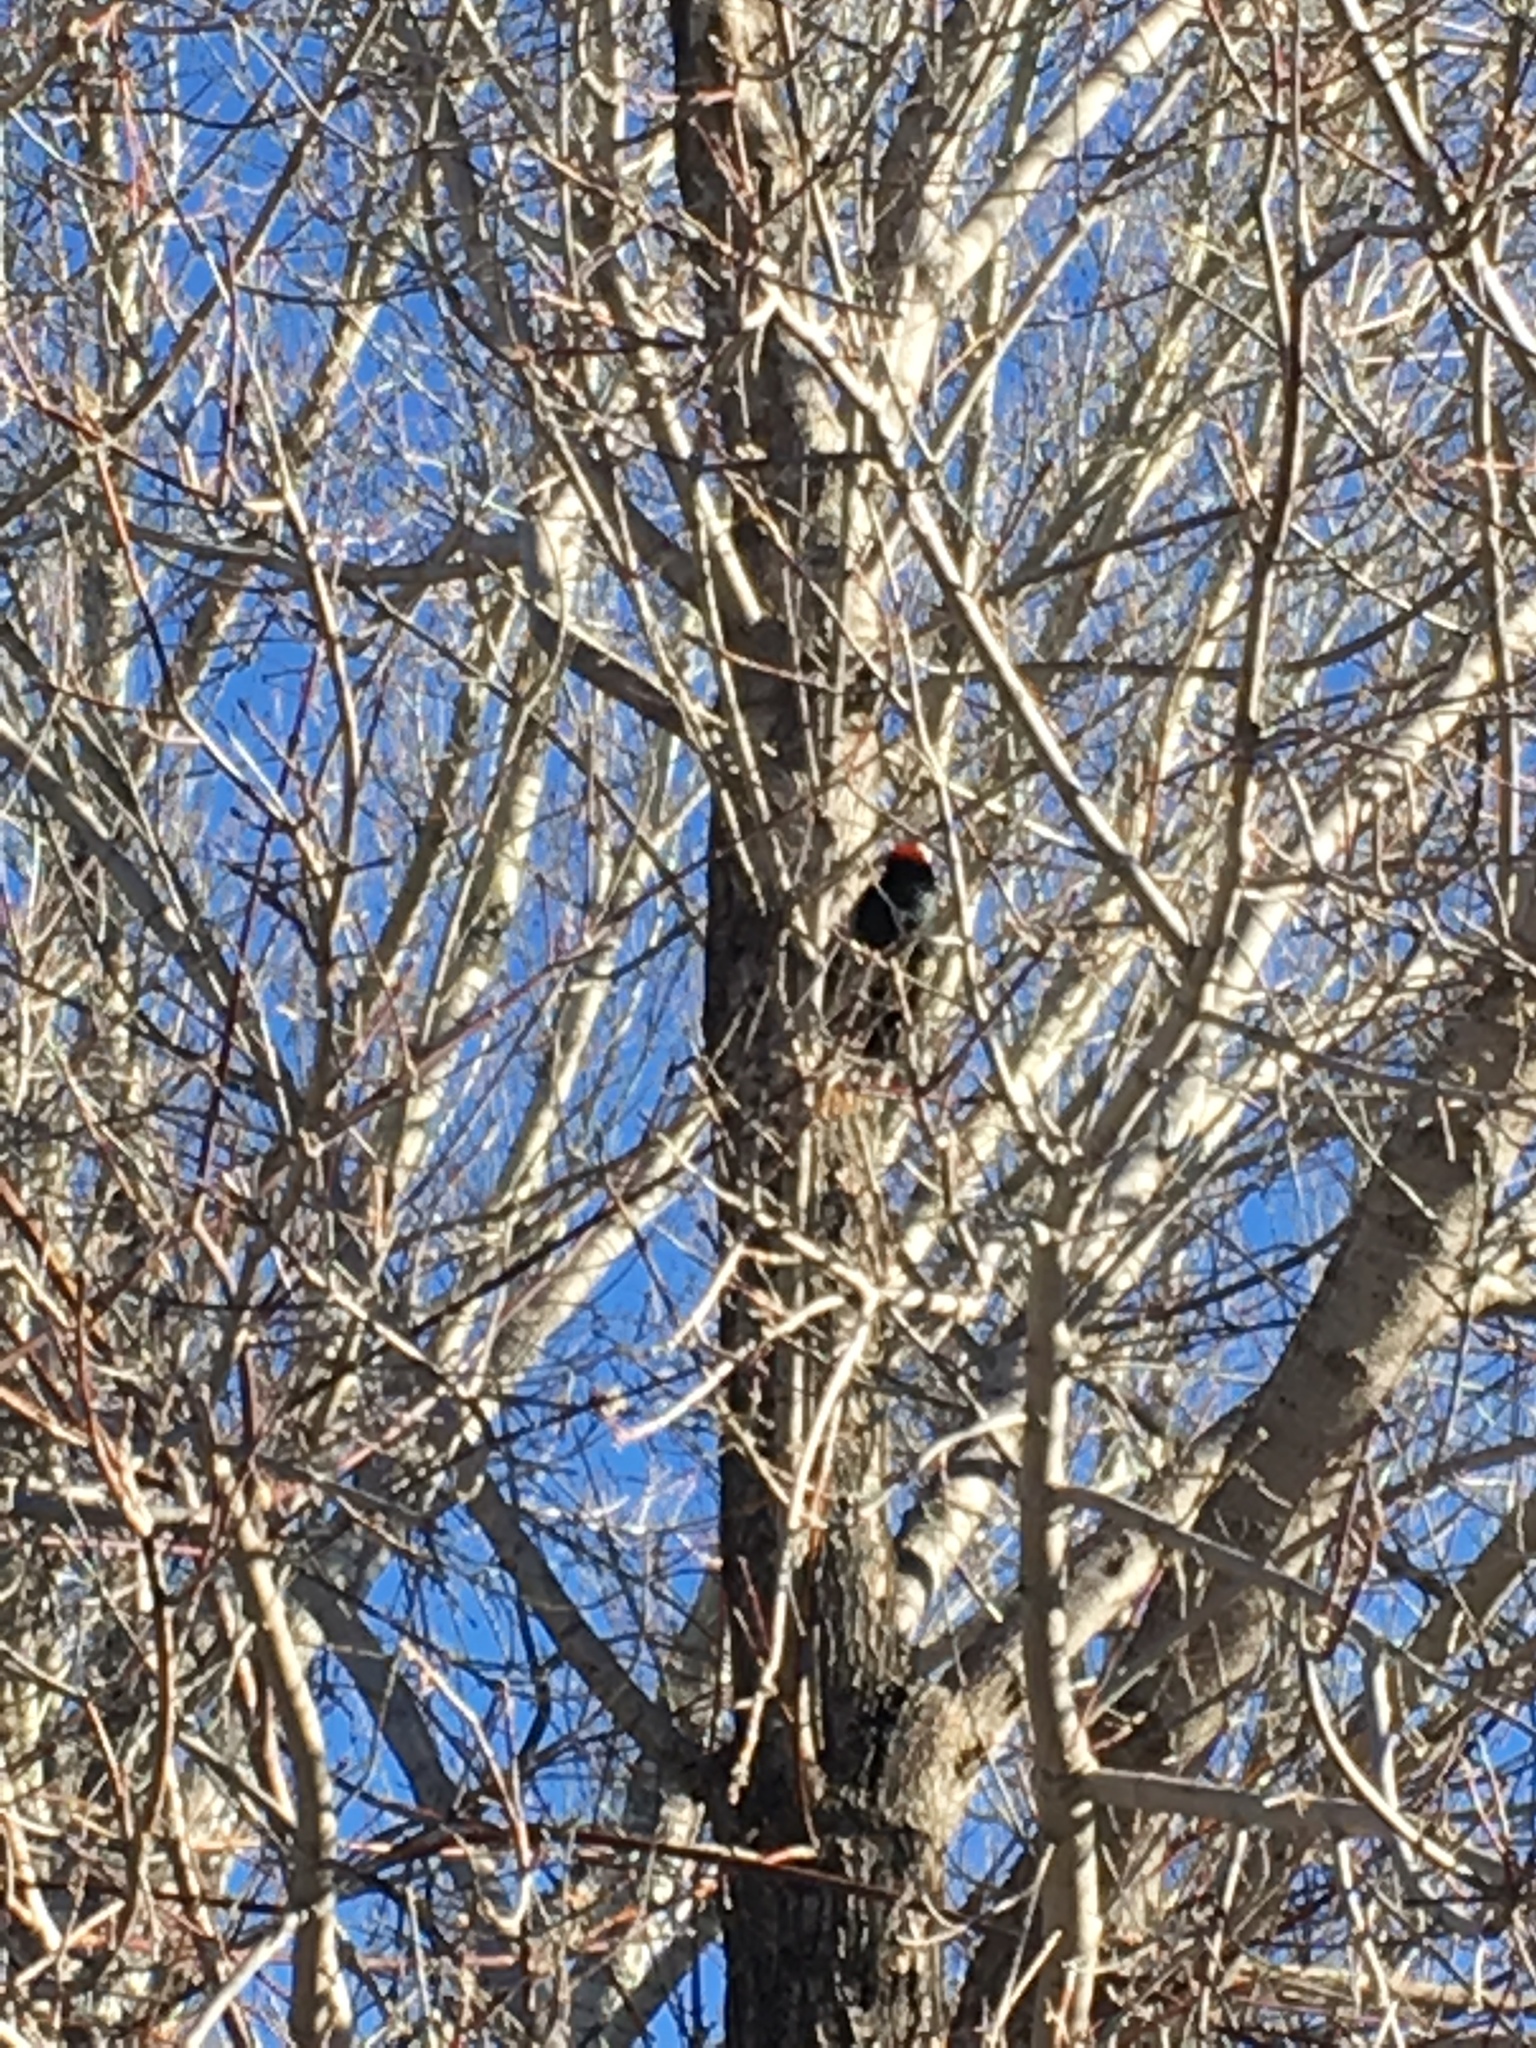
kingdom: Animalia
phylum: Chordata
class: Aves
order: Piciformes
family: Picidae
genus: Melanerpes
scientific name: Melanerpes formicivorus
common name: Acorn woodpecker
